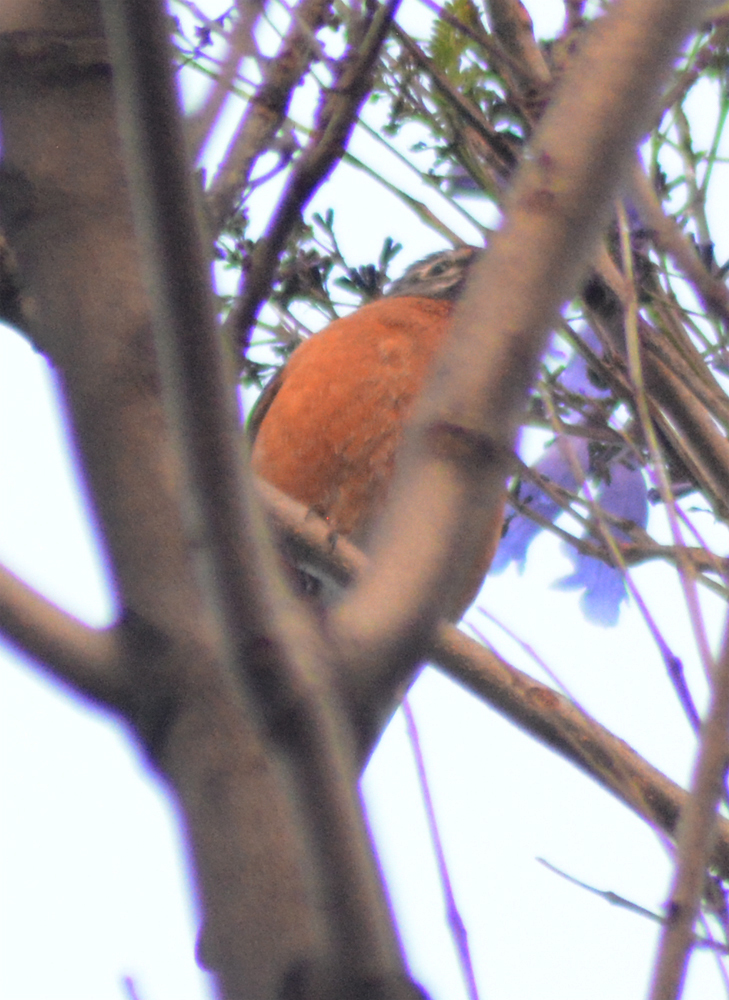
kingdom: Animalia
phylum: Chordata
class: Aves
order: Passeriformes
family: Turdidae
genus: Turdus
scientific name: Turdus migratorius
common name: American robin
